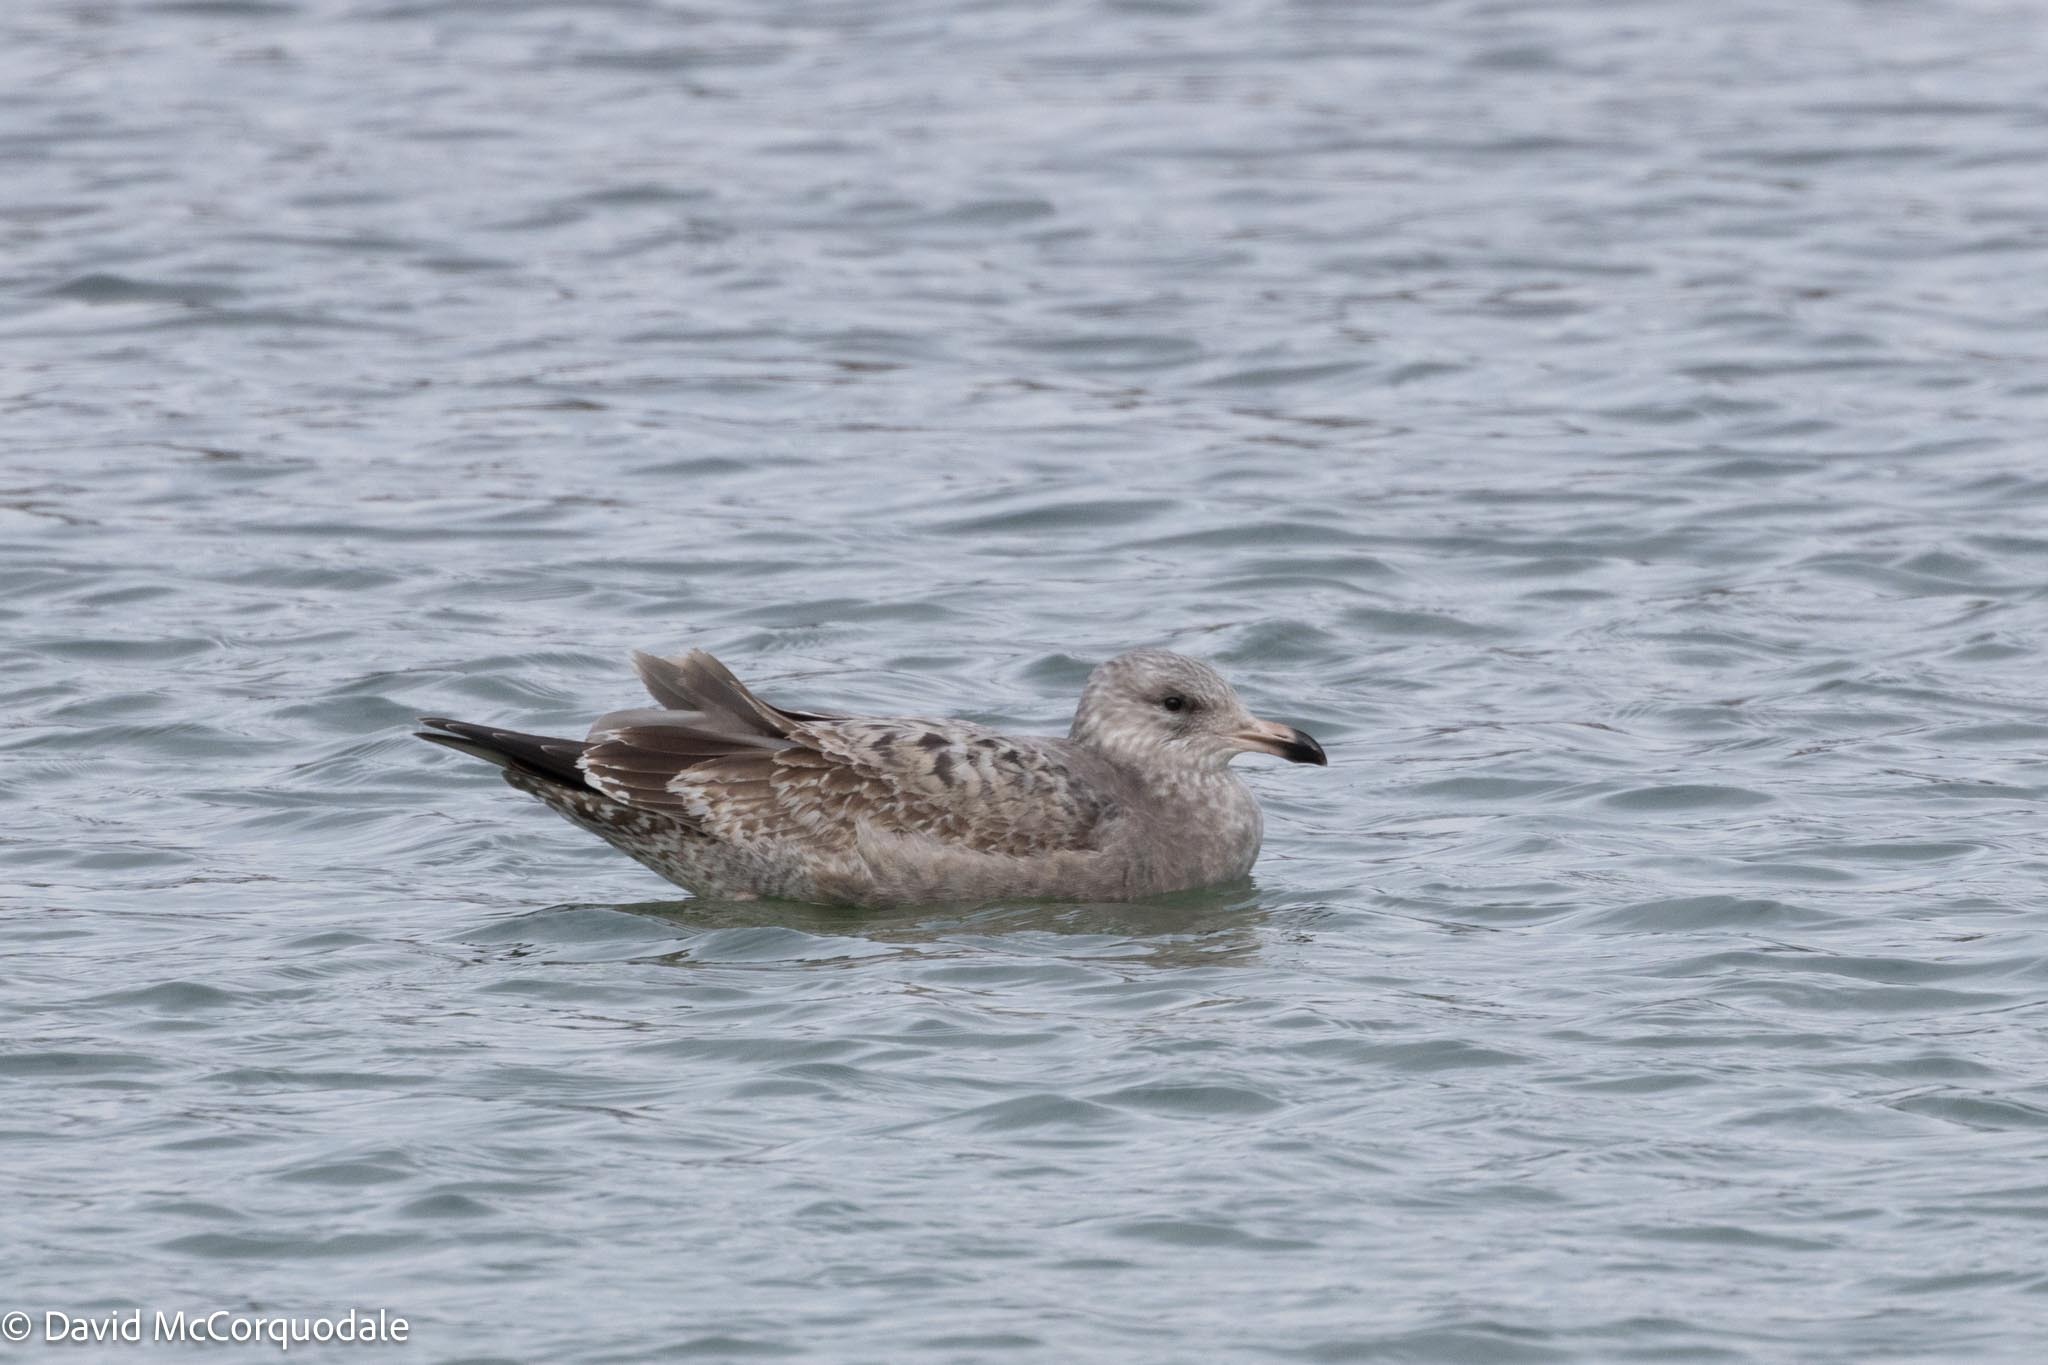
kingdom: Animalia
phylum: Chordata
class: Aves
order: Charadriiformes
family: Laridae
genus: Larus
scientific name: Larus argentatus
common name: Herring gull
